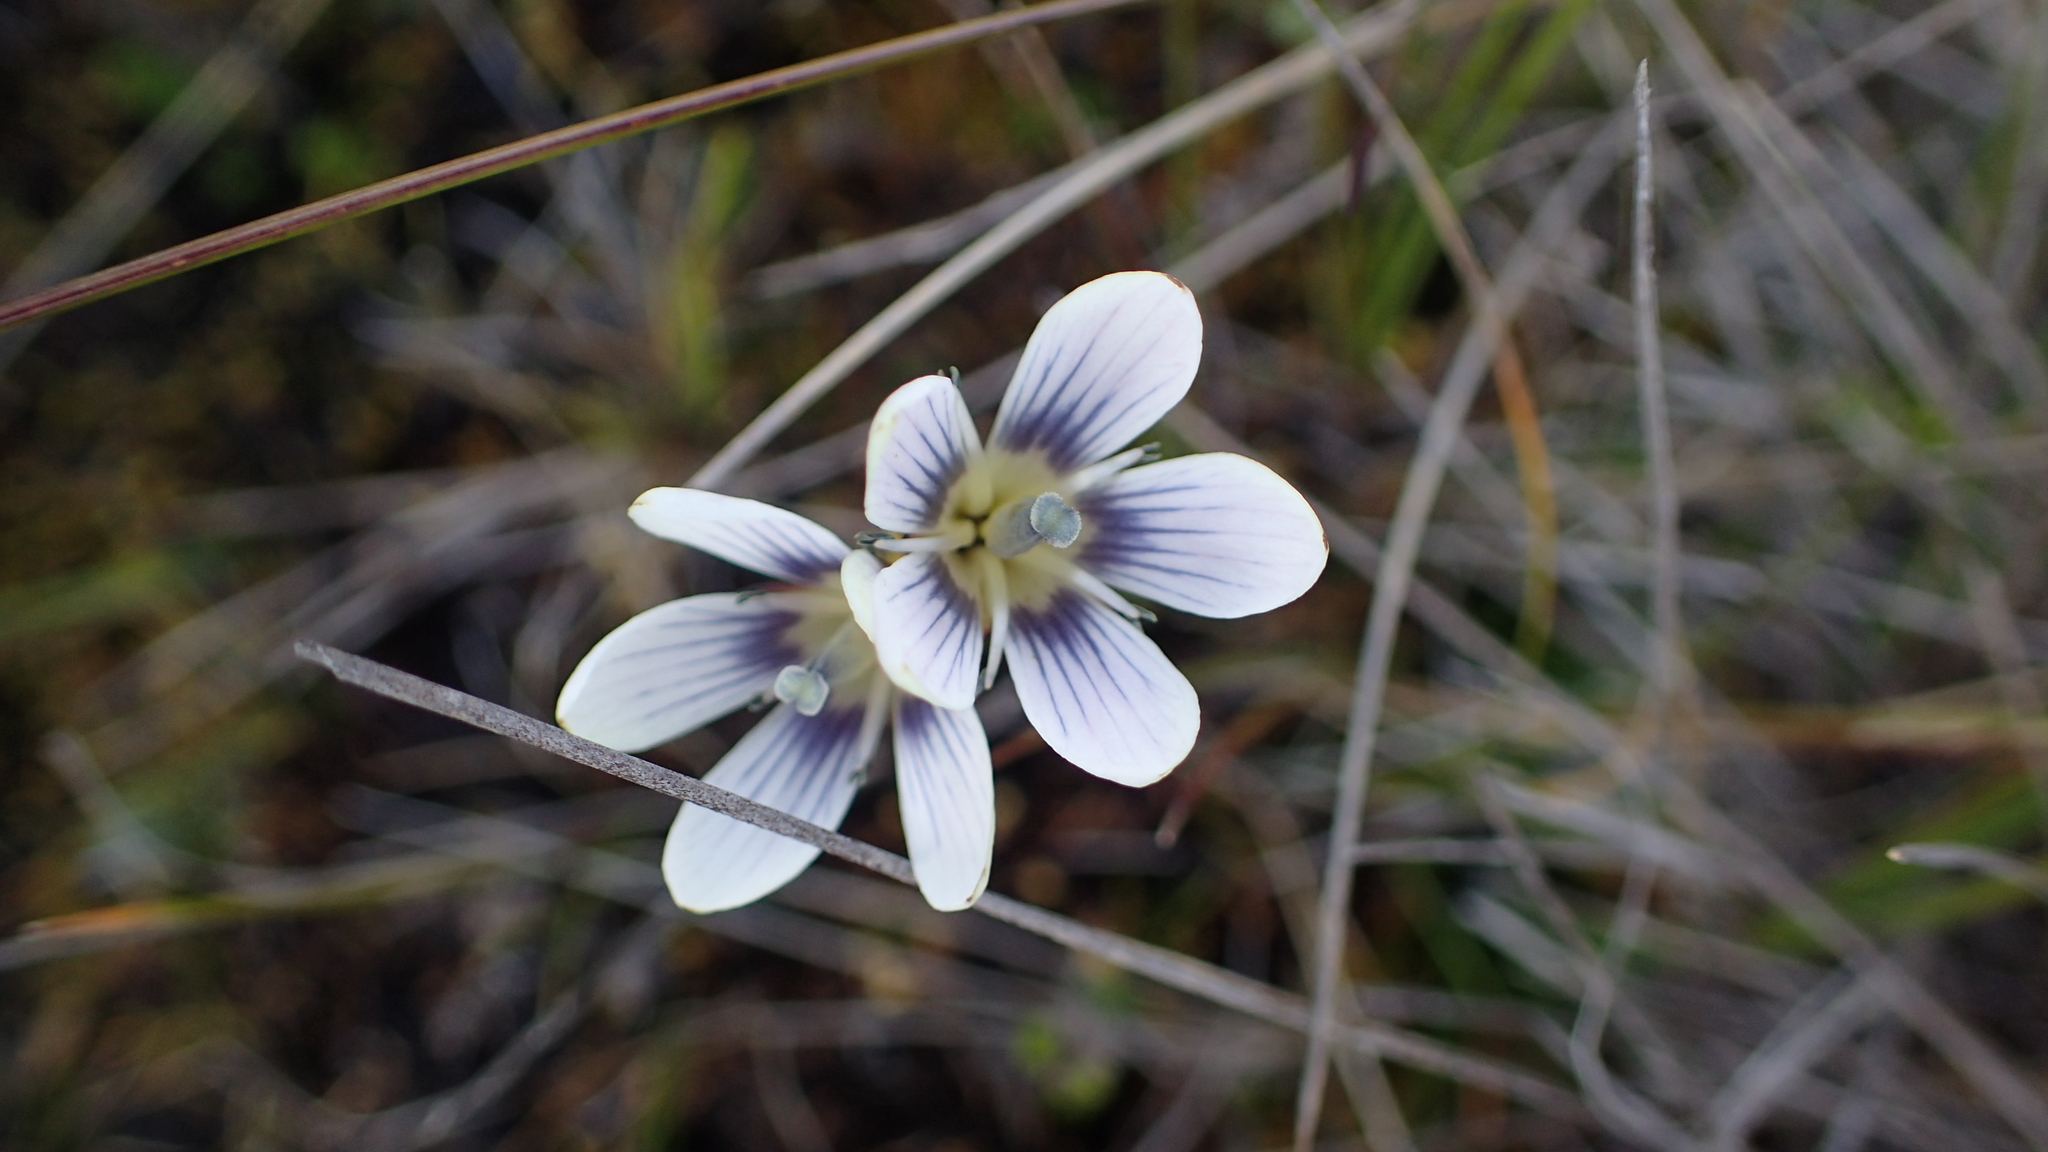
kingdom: Plantae
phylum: Tracheophyta
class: Magnoliopsida
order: Gentianales
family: Gentianaceae
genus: Gentianella
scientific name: Gentianella corymbosa
